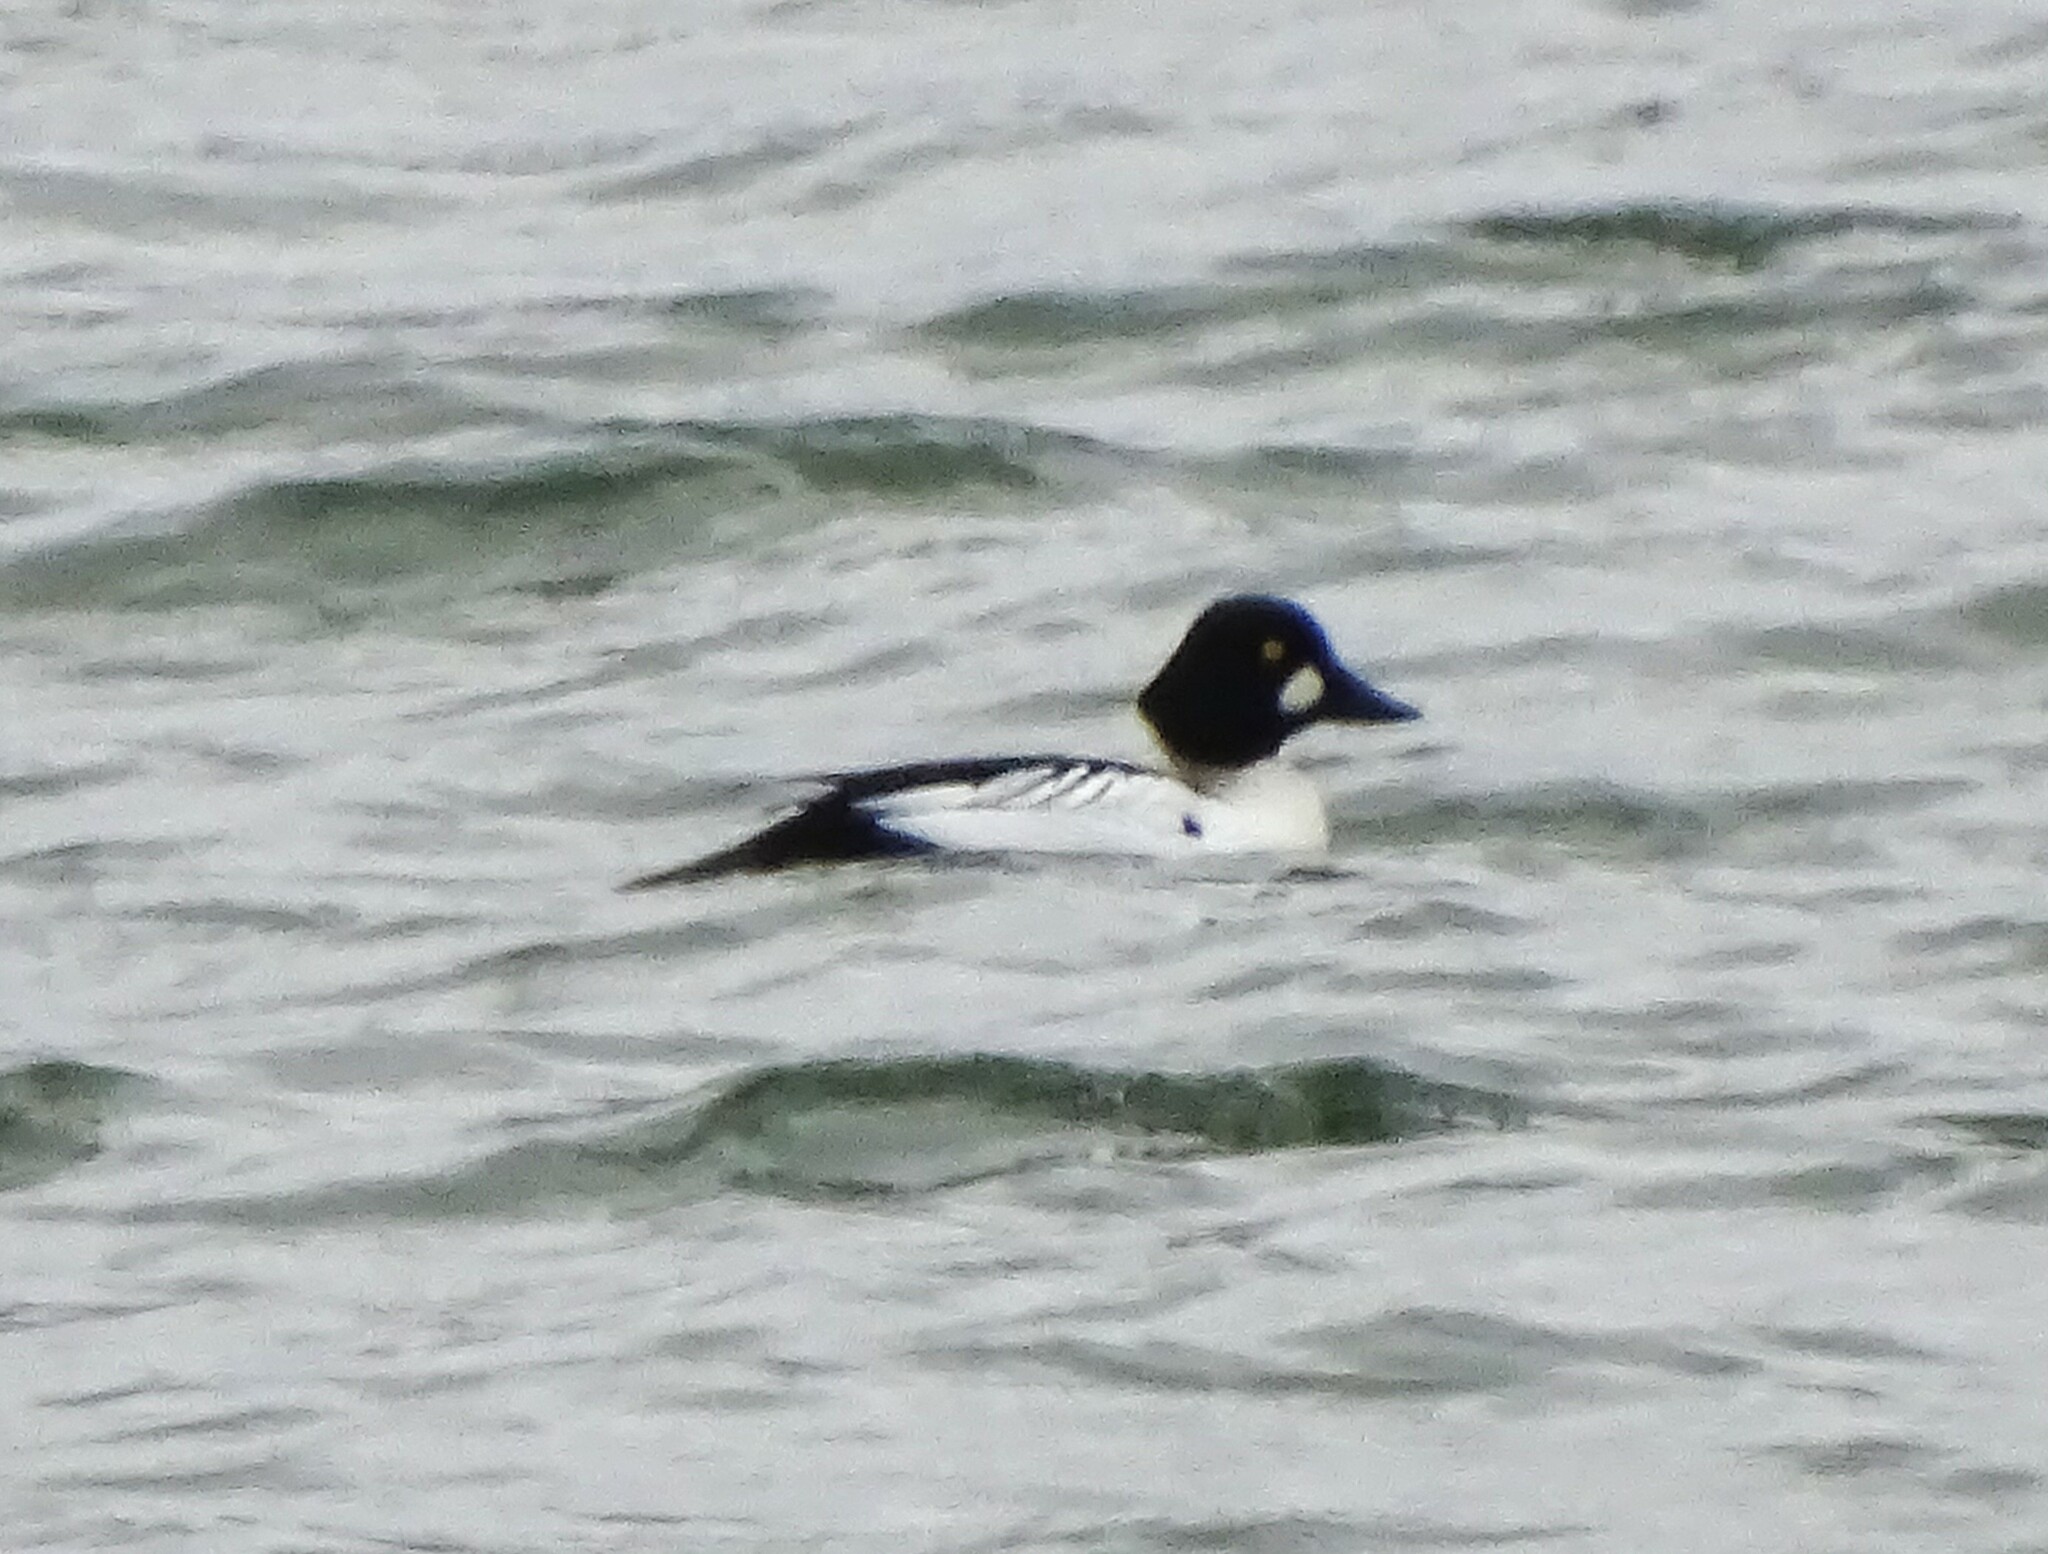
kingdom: Animalia
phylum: Chordata
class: Aves
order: Anseriformes
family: Anatidae
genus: Bucephala
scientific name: Bucephala clangula
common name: Common goldeneye
